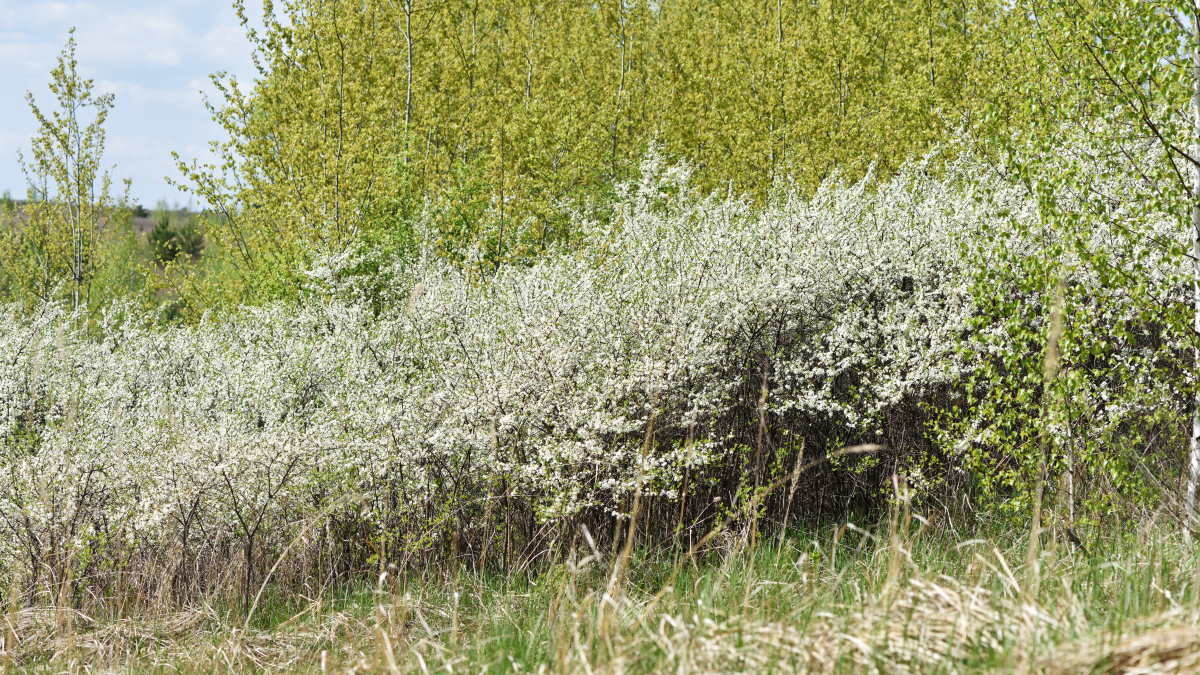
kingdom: Plantae
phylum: Tracheophyta
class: Magnoliopsida
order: Rosales
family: Rosaceae
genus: Prunus
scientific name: Prunus spinosa
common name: Blackthorn
